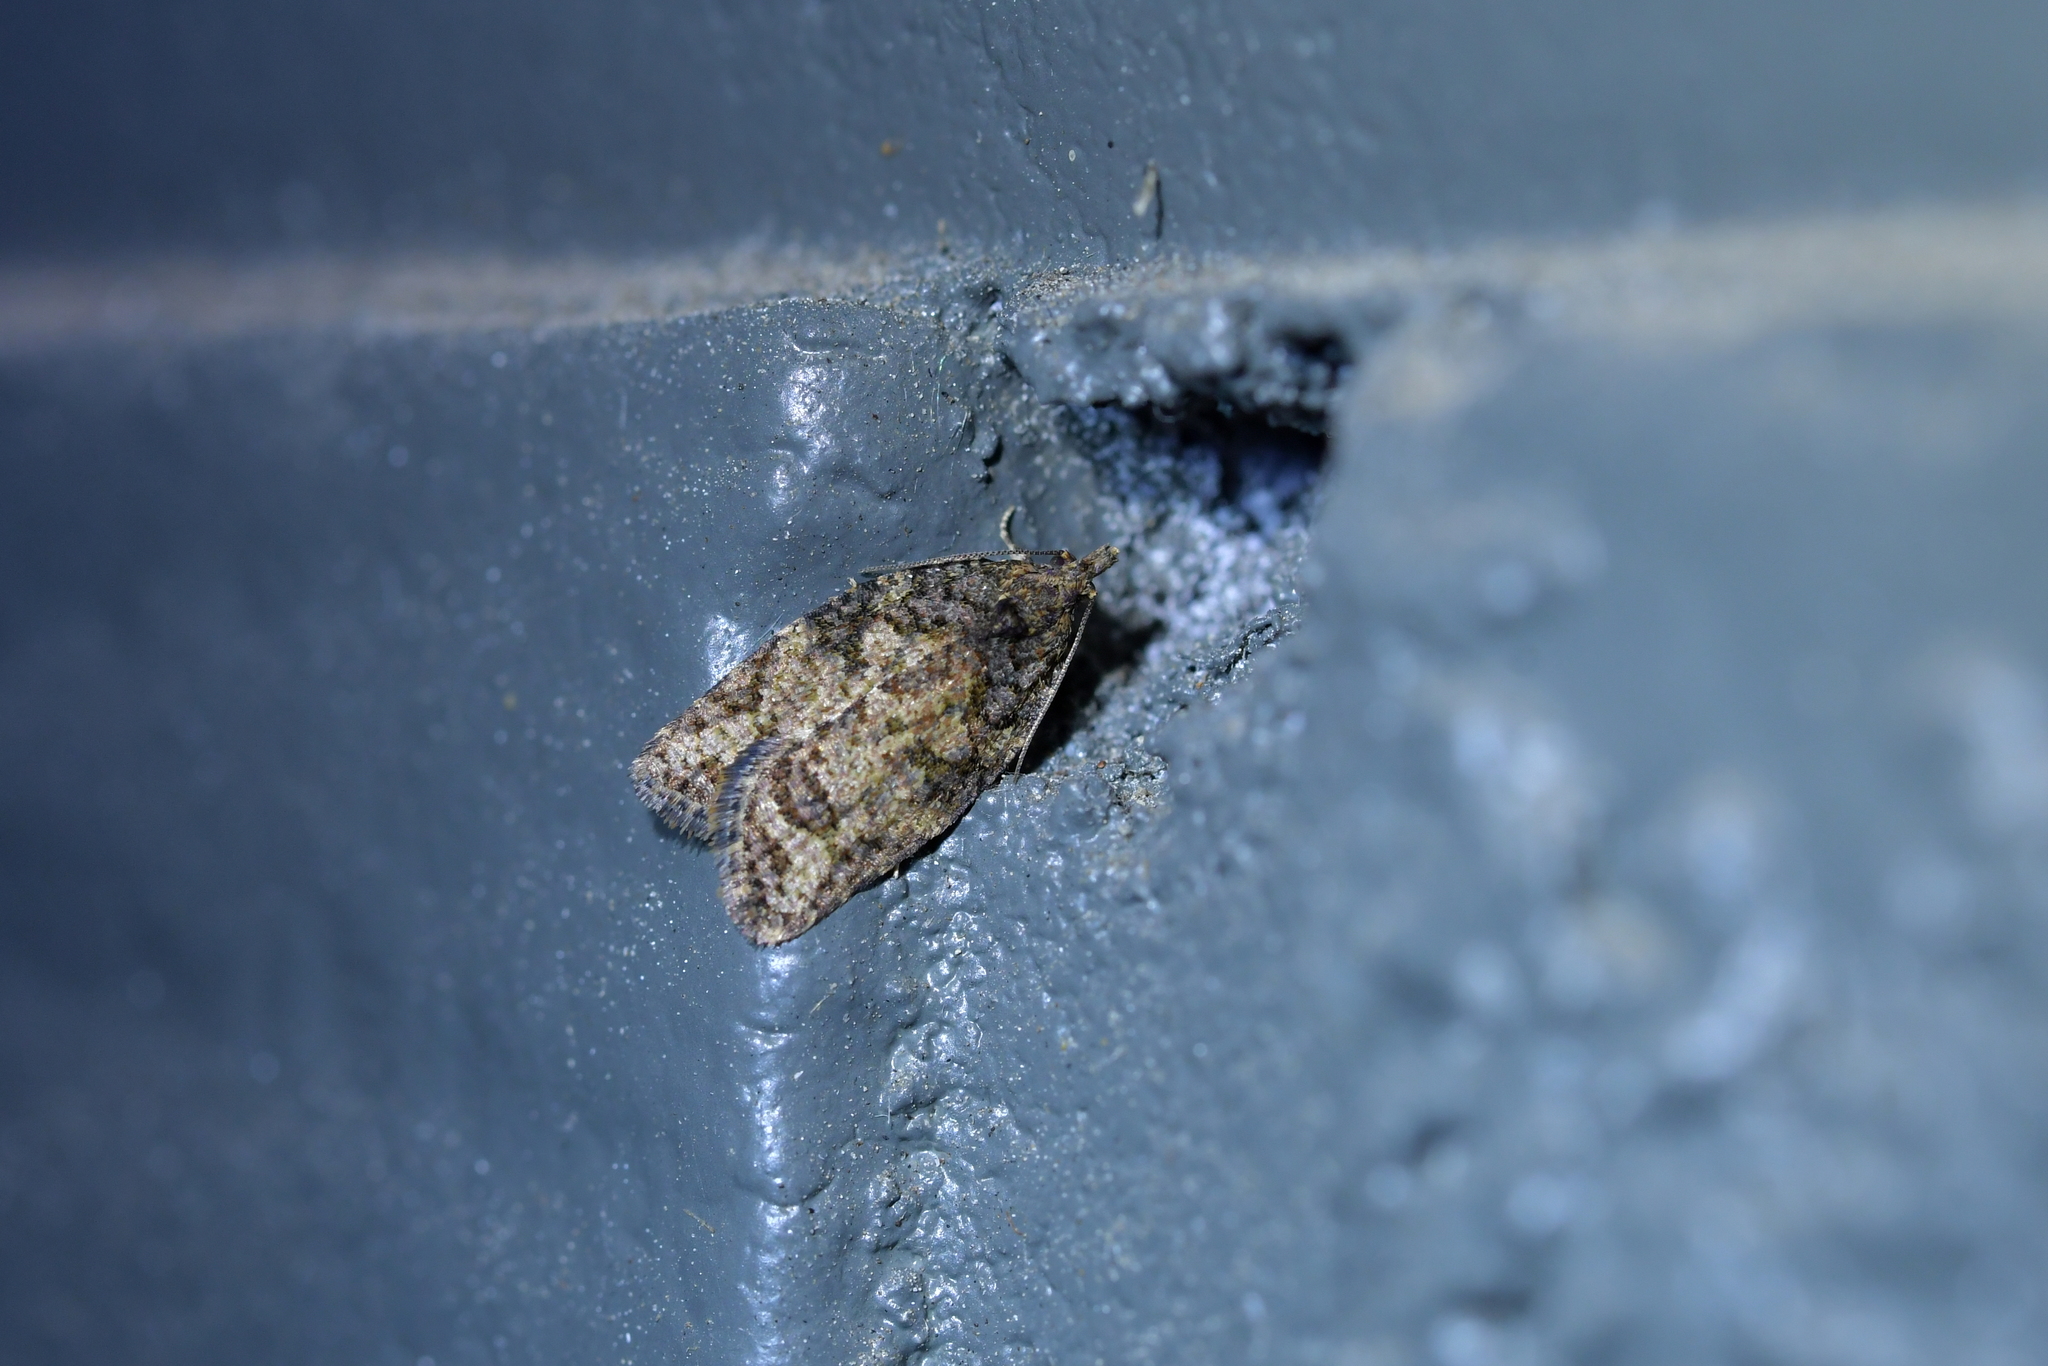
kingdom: Animalia
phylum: Arthropoda
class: Insecta
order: Lepidoptera
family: Tortricidae
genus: Capua
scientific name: Capua intractana
